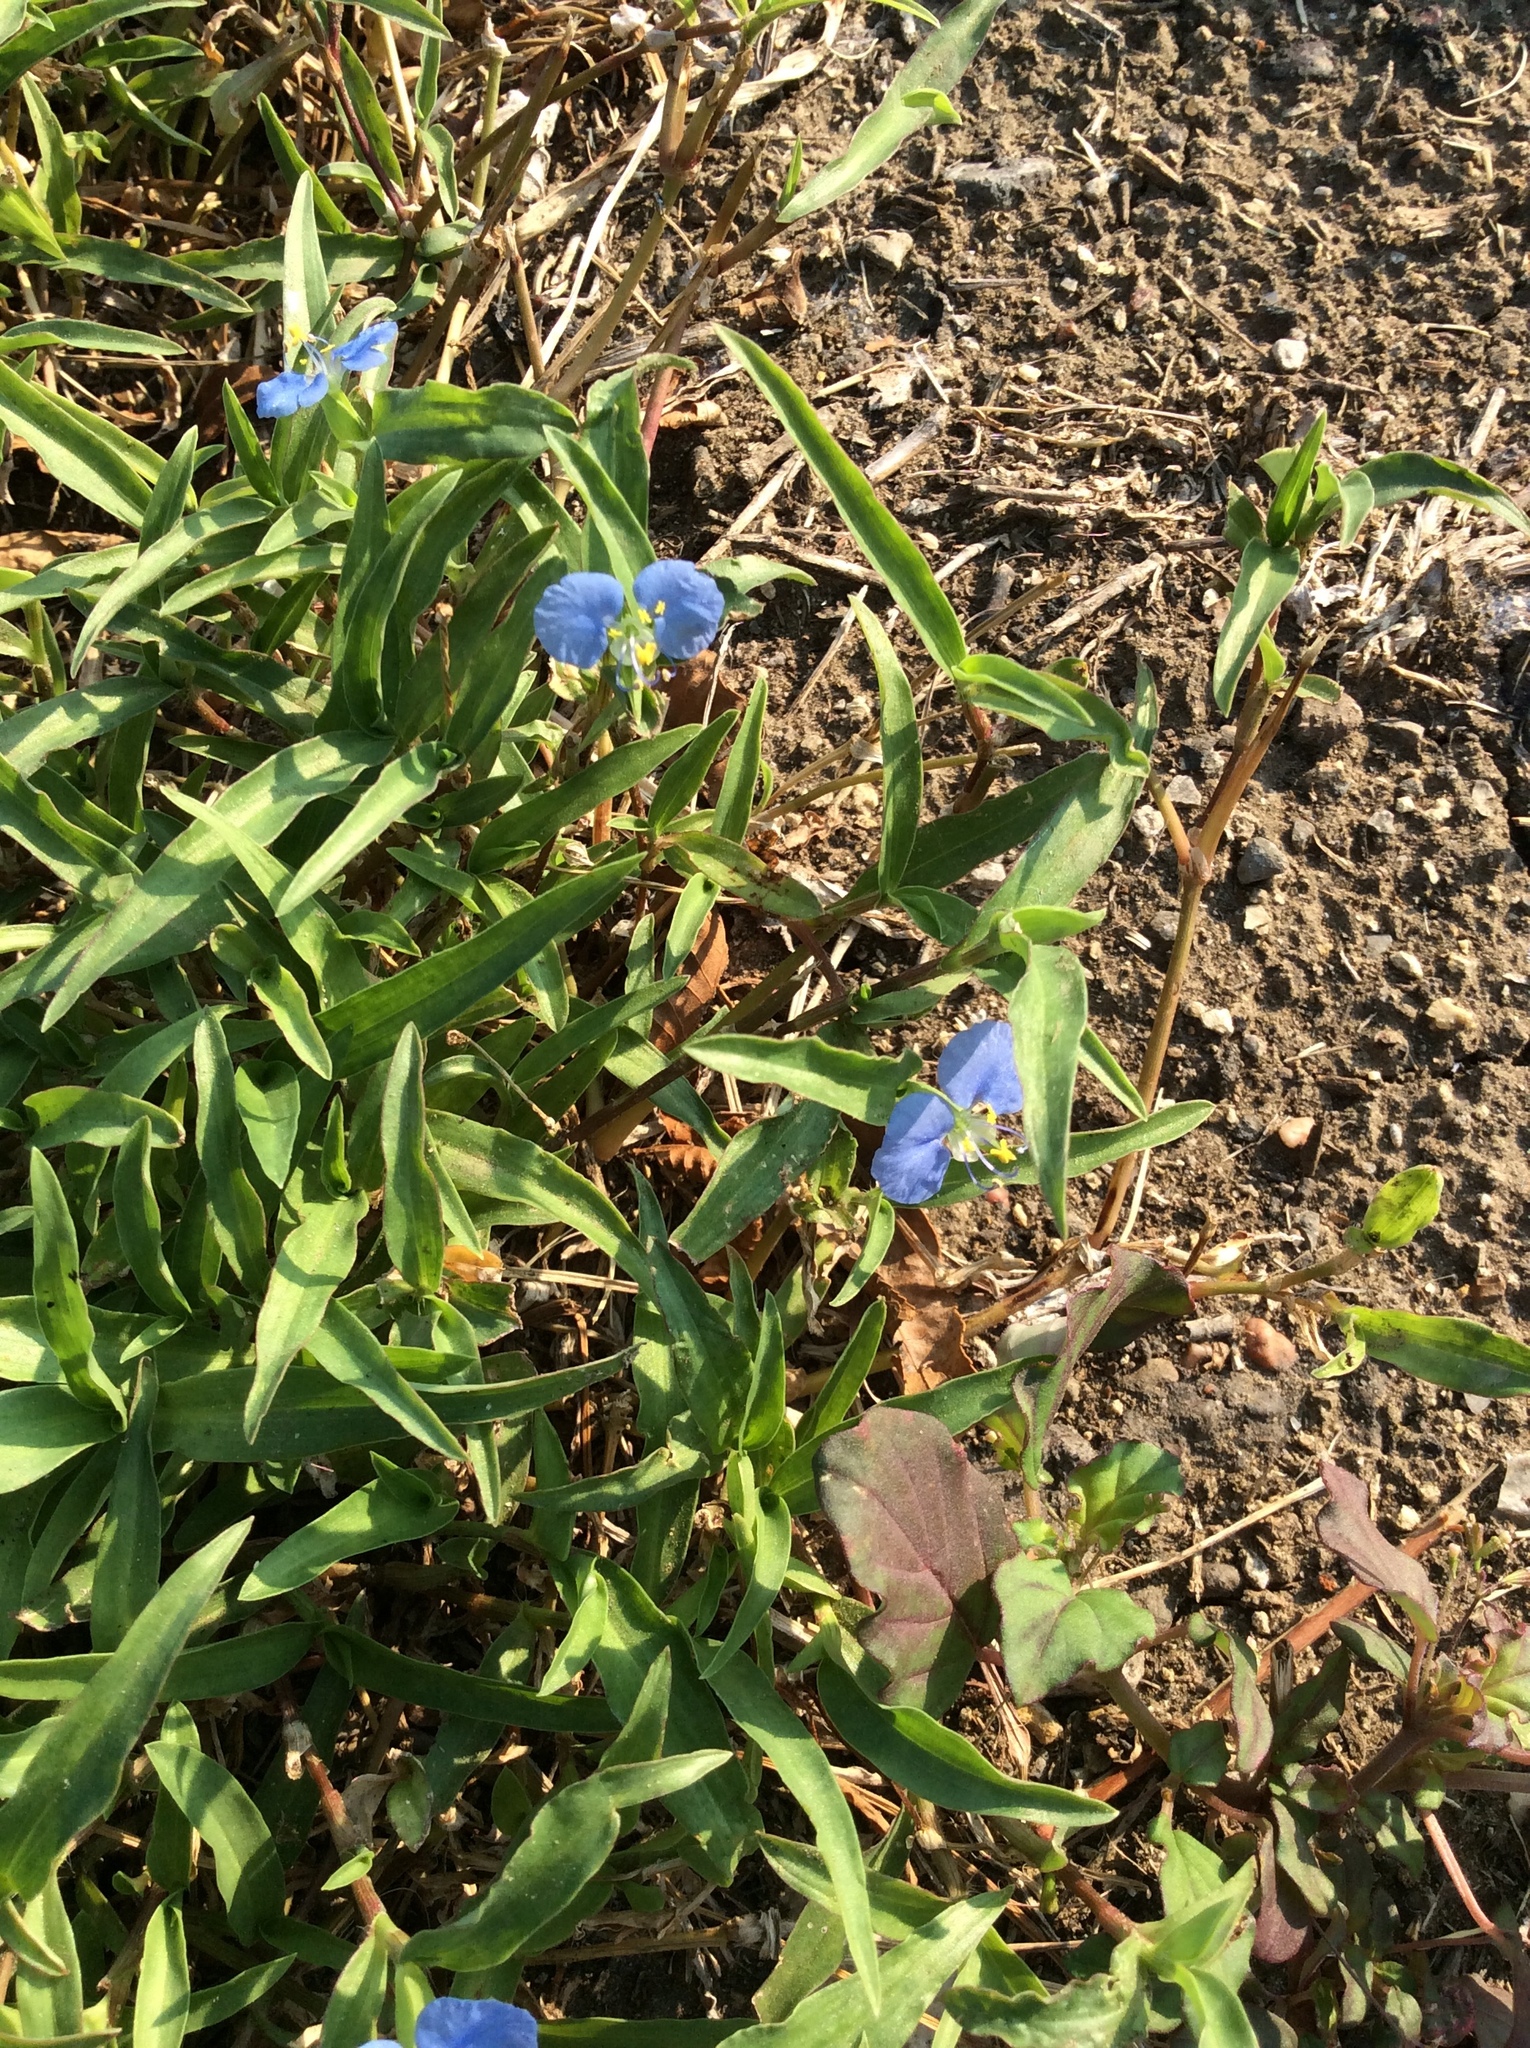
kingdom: Plantae
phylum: Tracheophyta
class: Liliopsida
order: Commelinales
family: Commelinaceae
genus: Commelina
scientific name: Commelina erecta
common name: Blousel blommetjie
